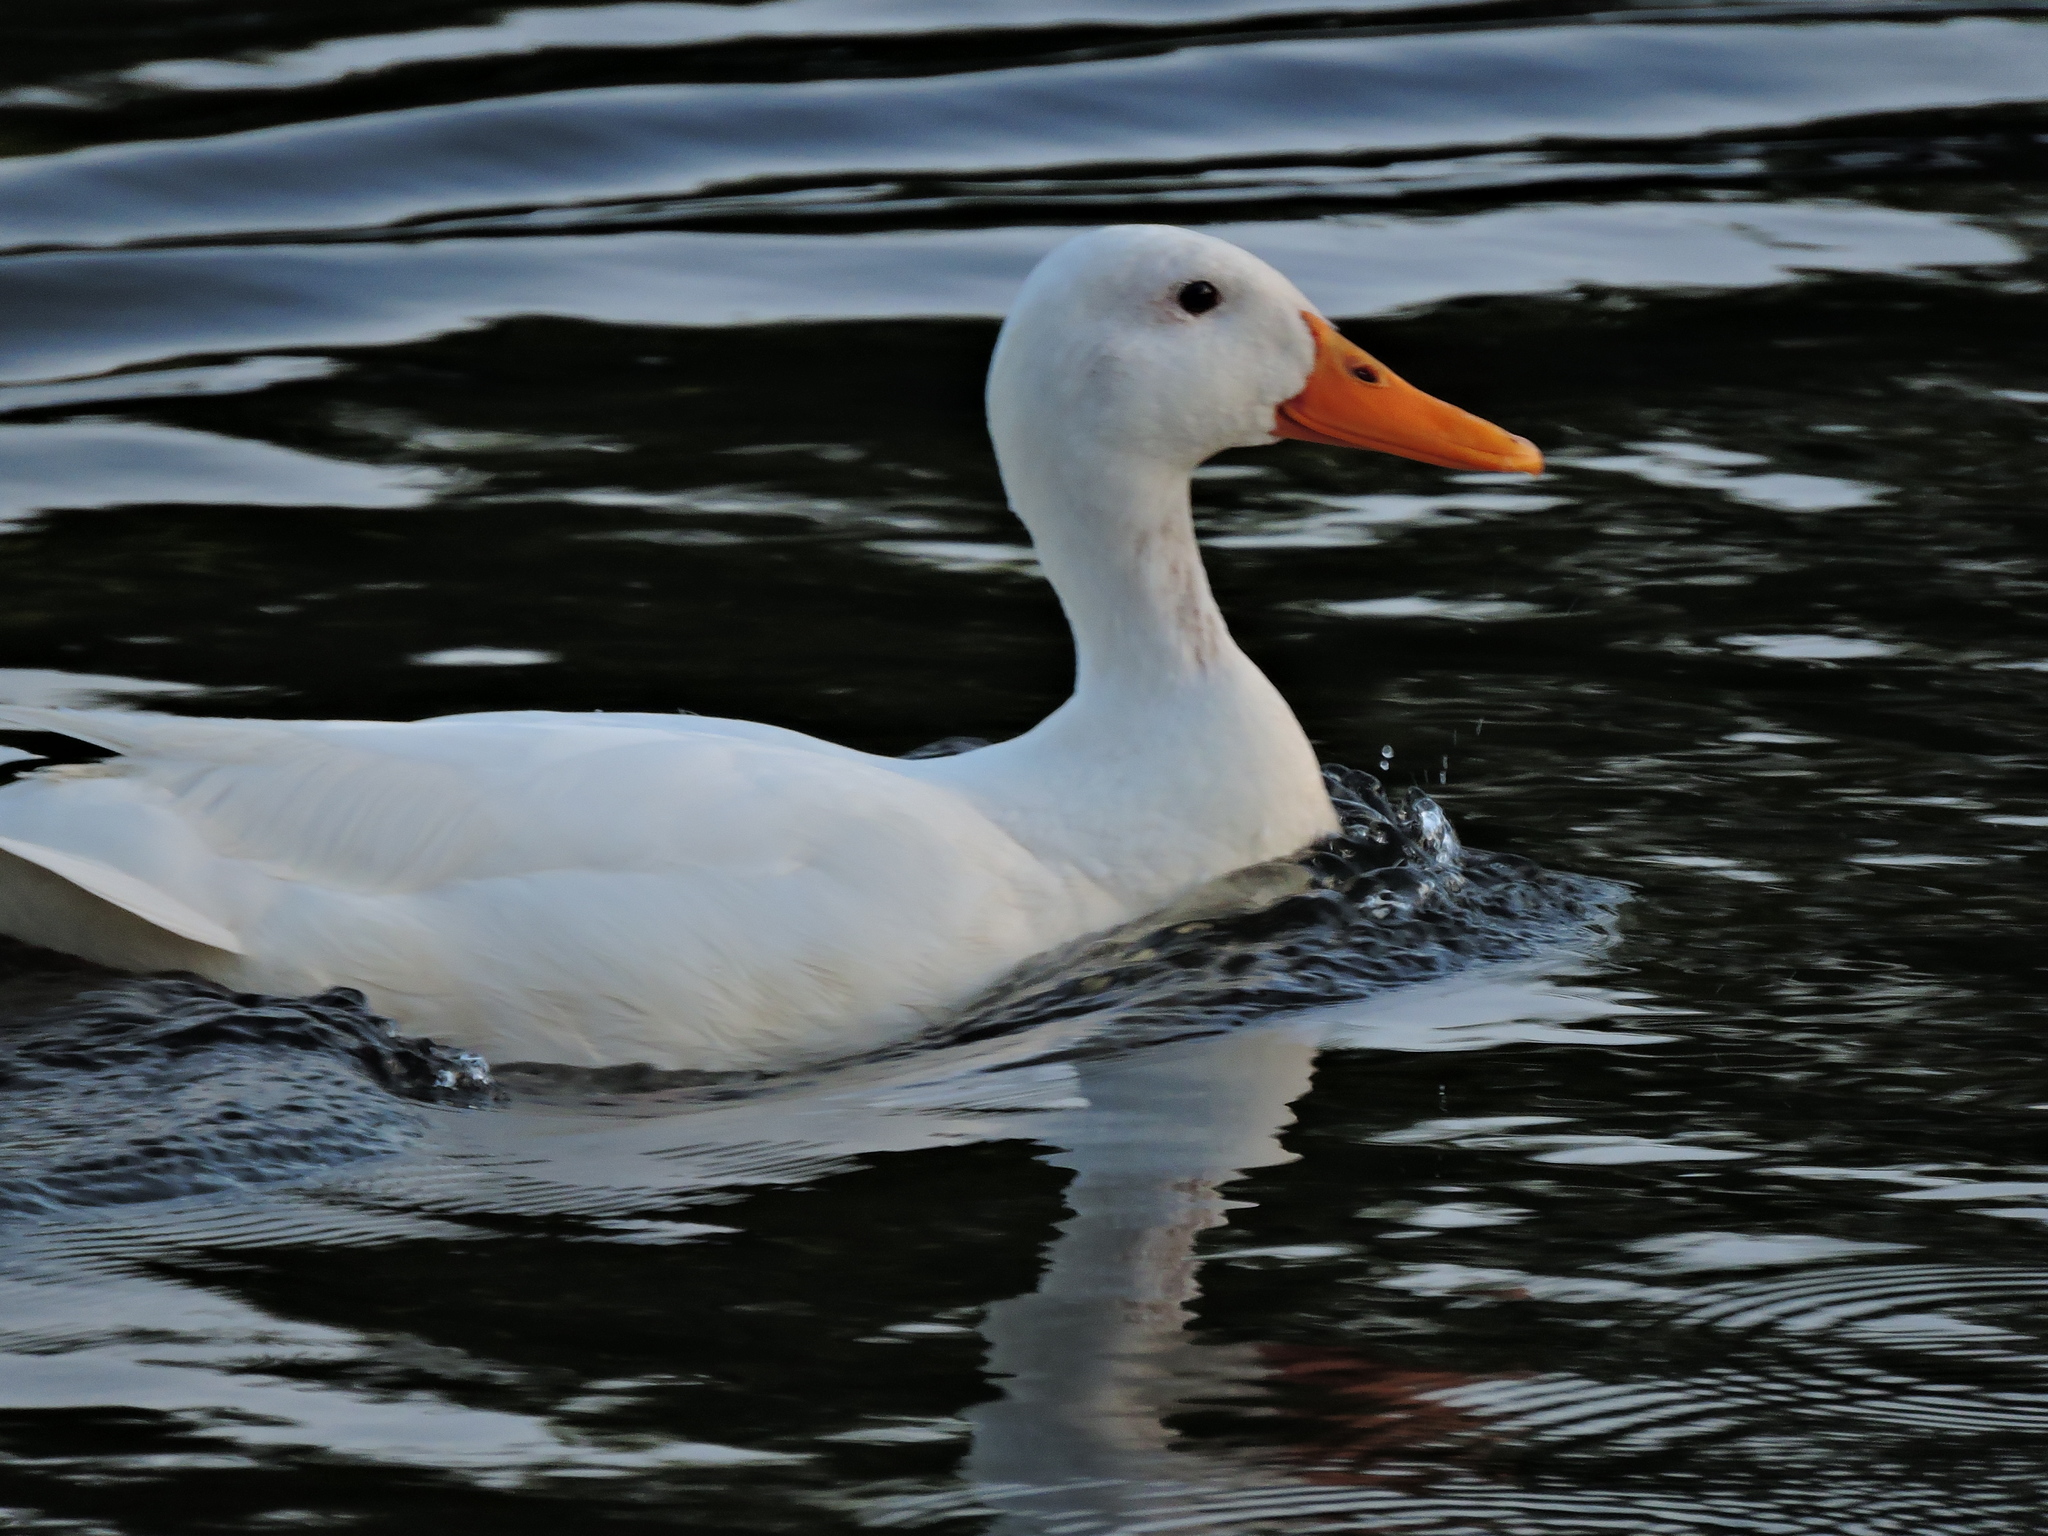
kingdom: Animalia
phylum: Chordata
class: Aves
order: Anseriformes
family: Anatidae
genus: Anas
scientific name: Anas platyrhynchos
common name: Mallard
